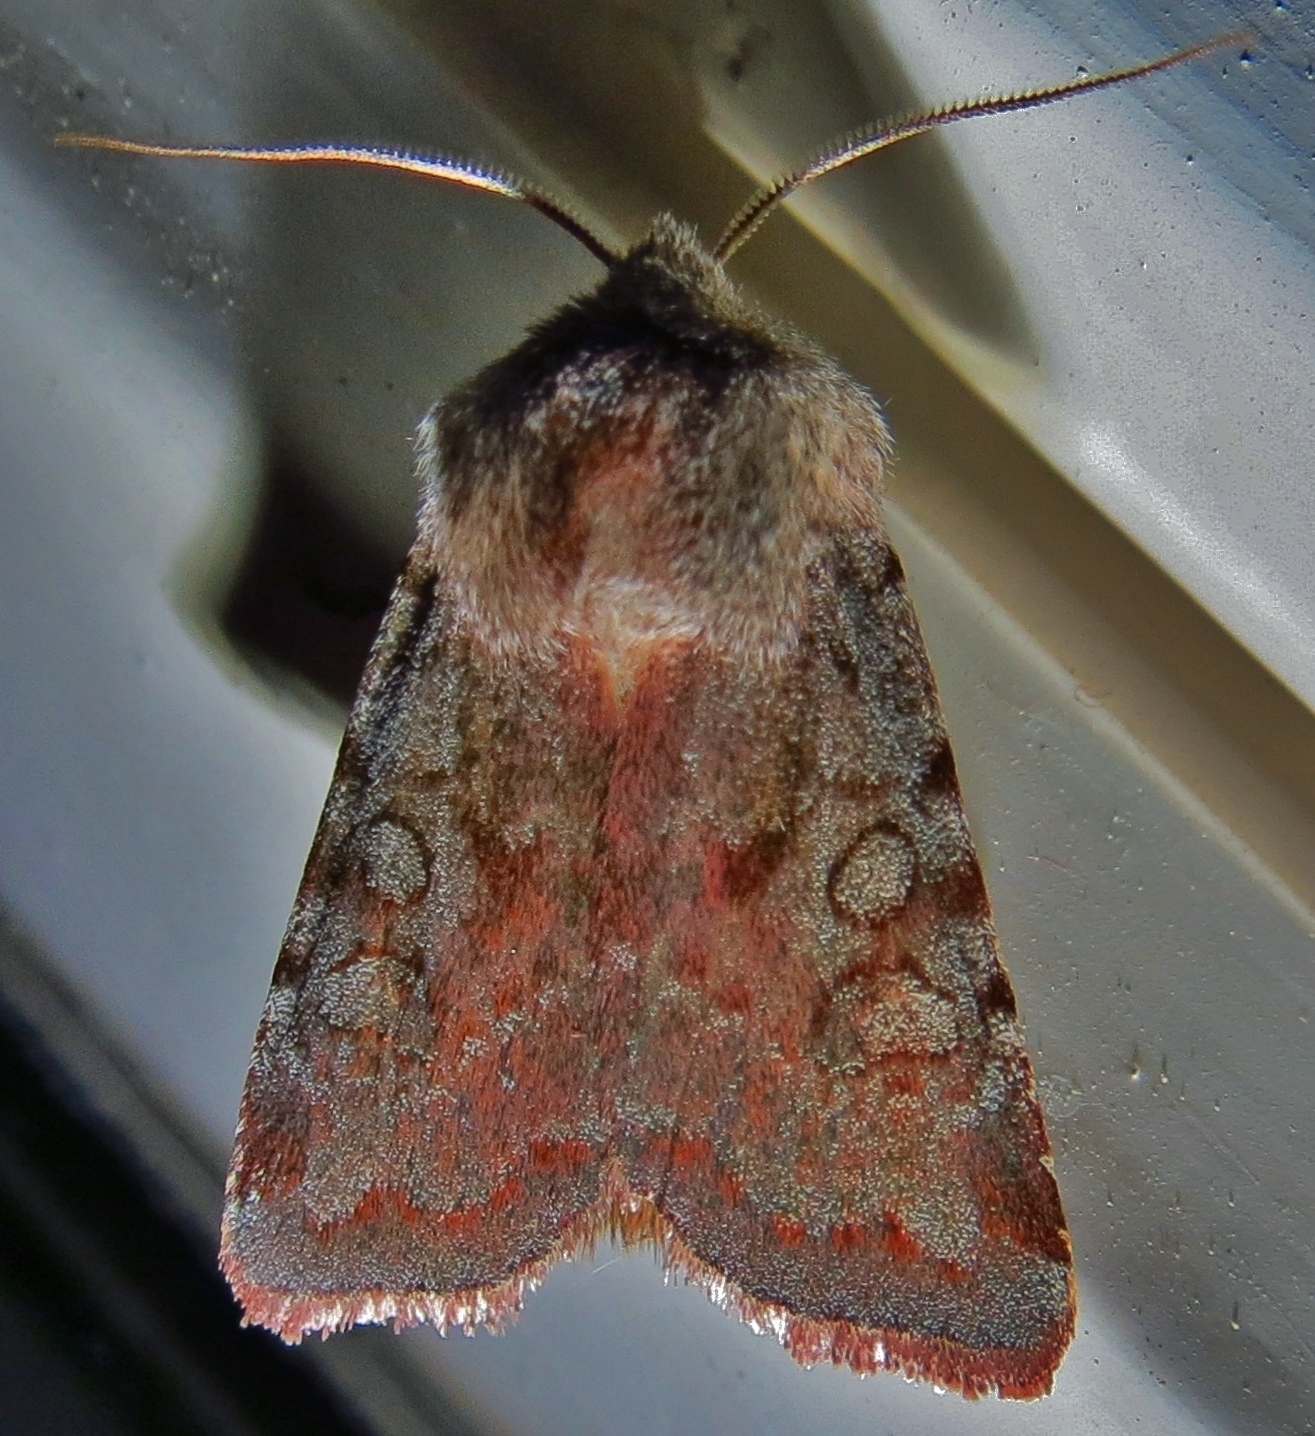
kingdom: Animalia
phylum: Arthropoda
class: Insecta
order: Lepidoptera
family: Noctuidae
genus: Cerastis
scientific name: Cerastis rubricosa
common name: Red chestnut
